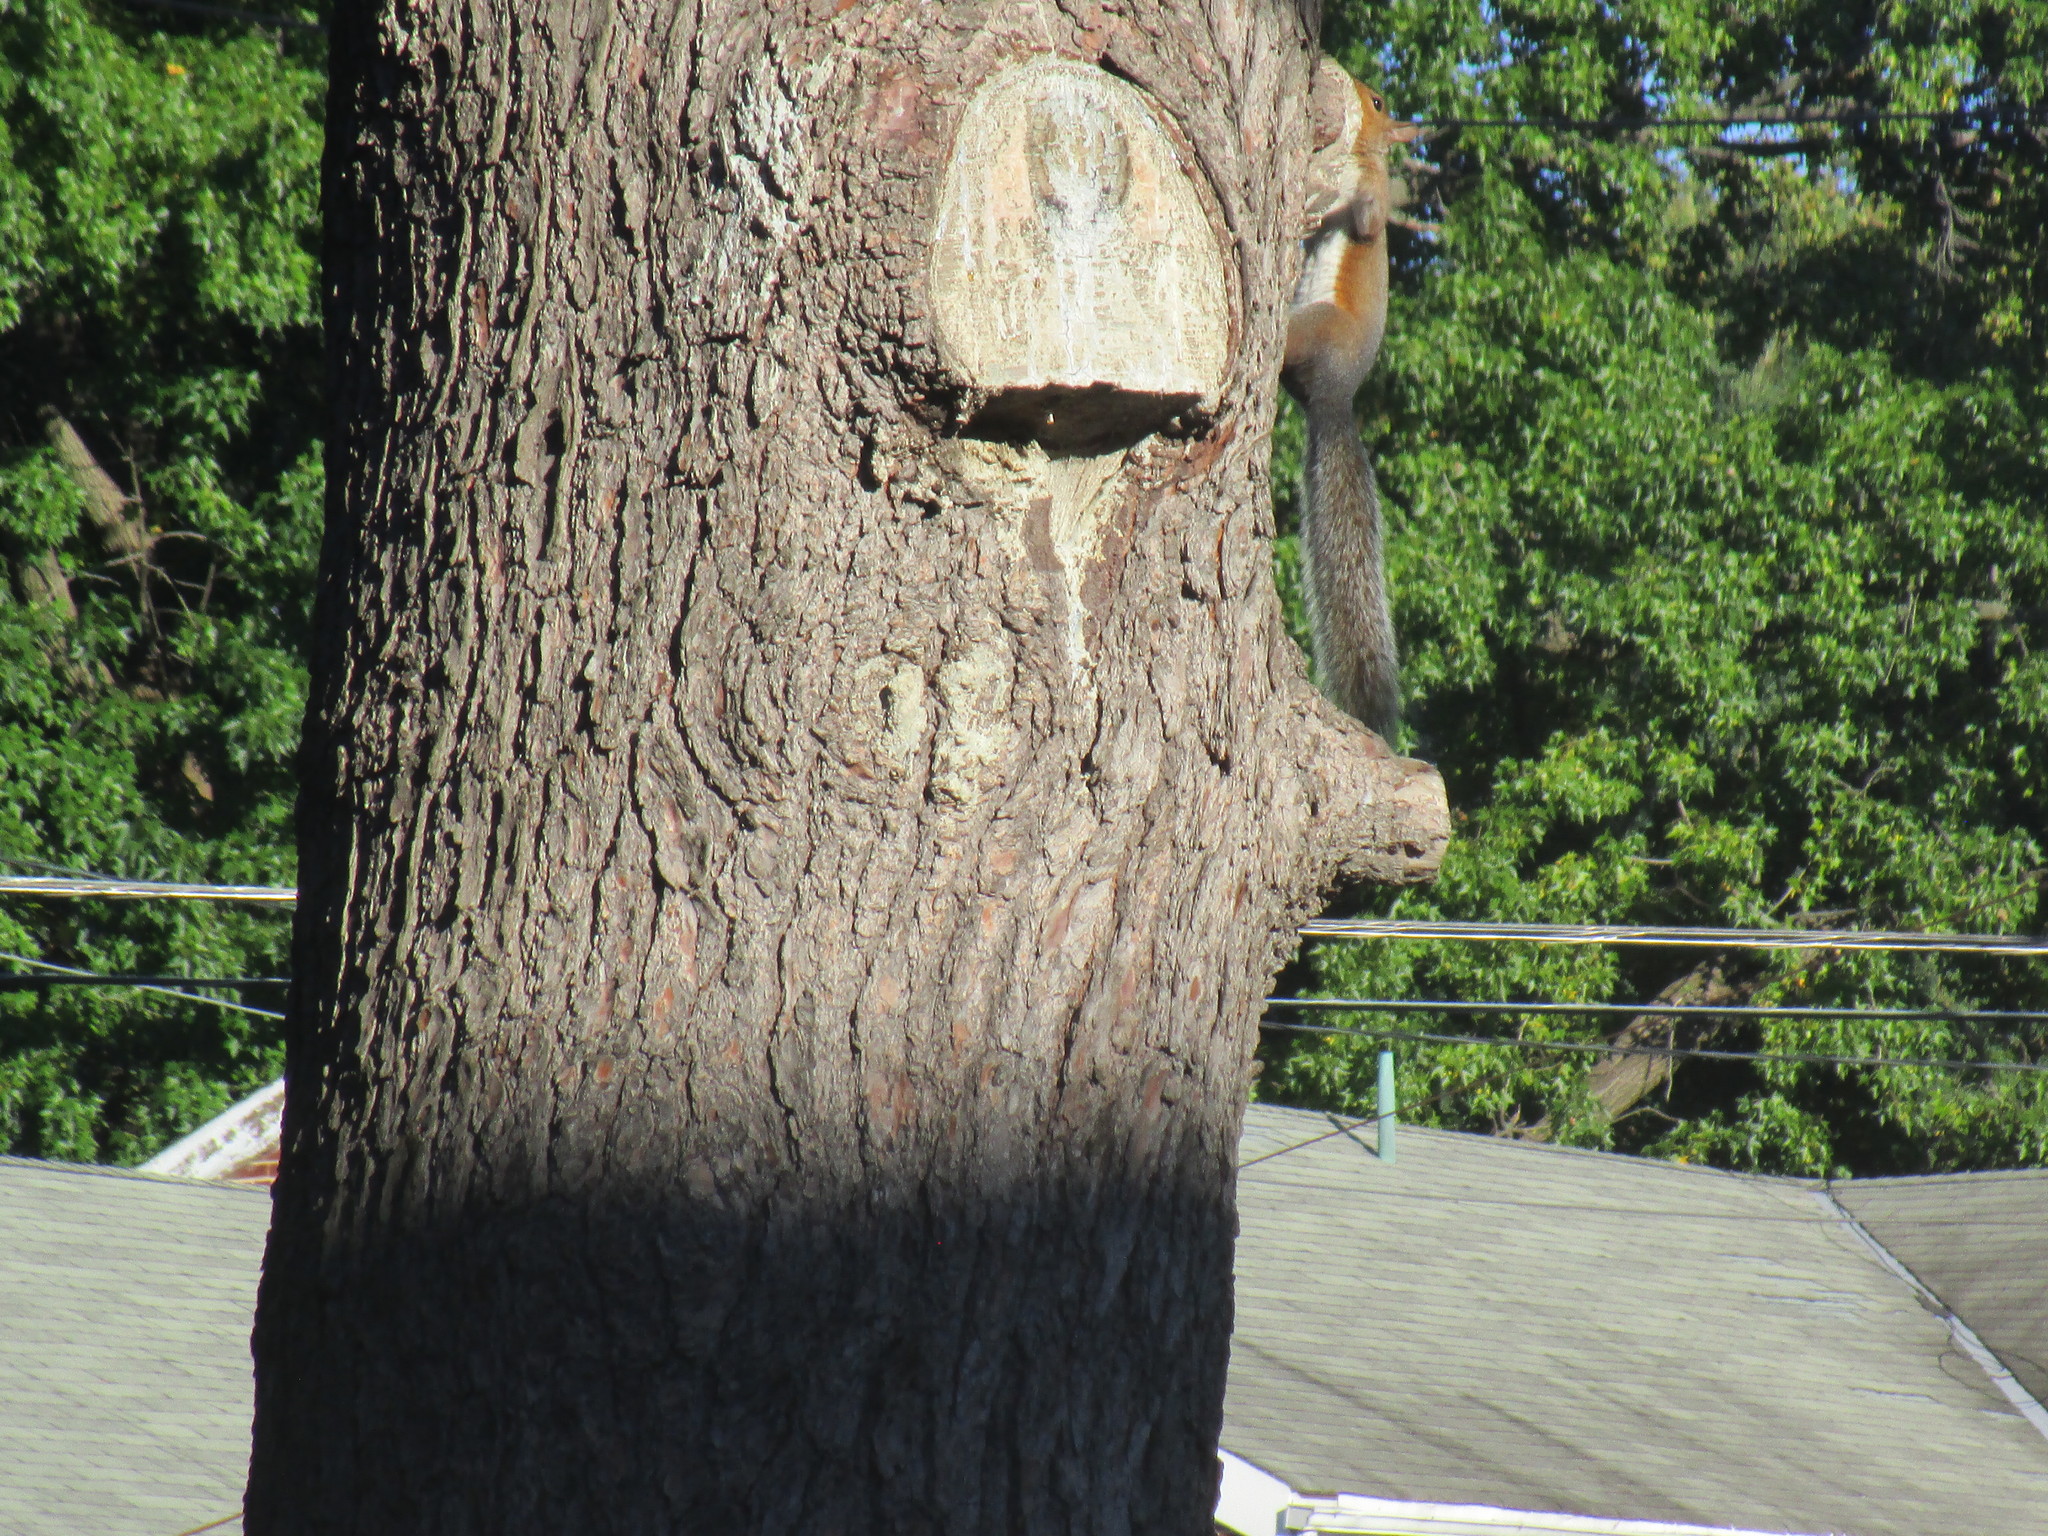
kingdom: Animalia
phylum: Chordata
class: Mammalia
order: Rodentia
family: Sciuridae
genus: Sciurus
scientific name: Sciurus carolinensis
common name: Eastern gray squirrel
